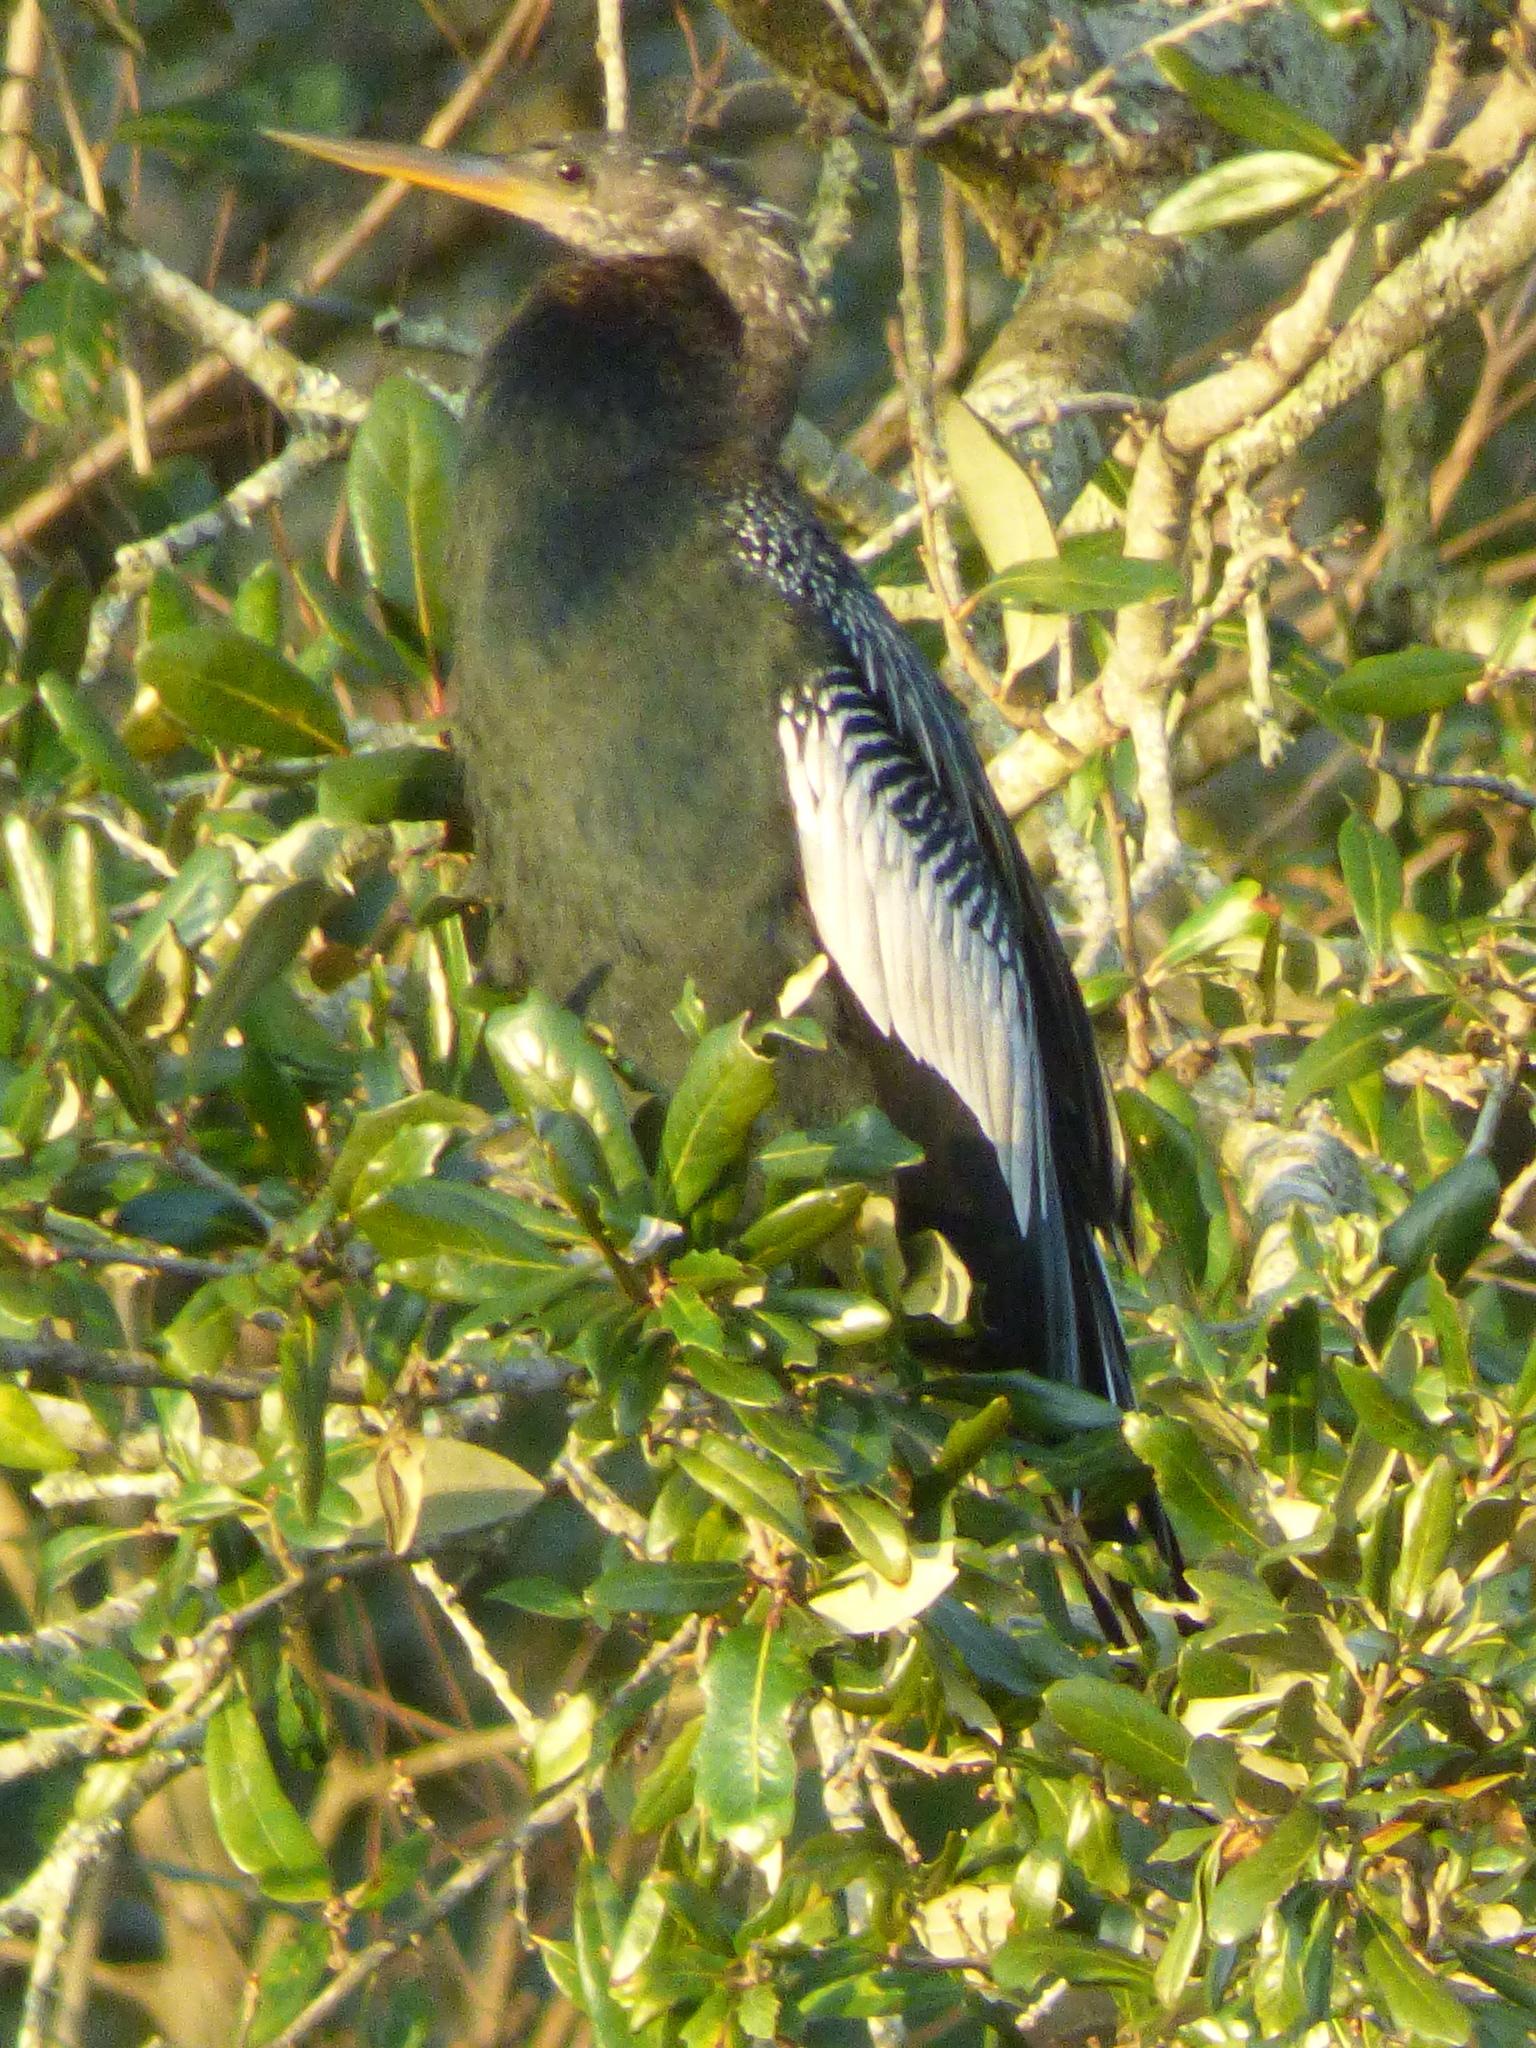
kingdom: Animalia
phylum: Chordata
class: Aves
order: Suliformes
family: Anhingidae
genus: Anhinga
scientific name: Anhinga anhinga
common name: Anhinga
